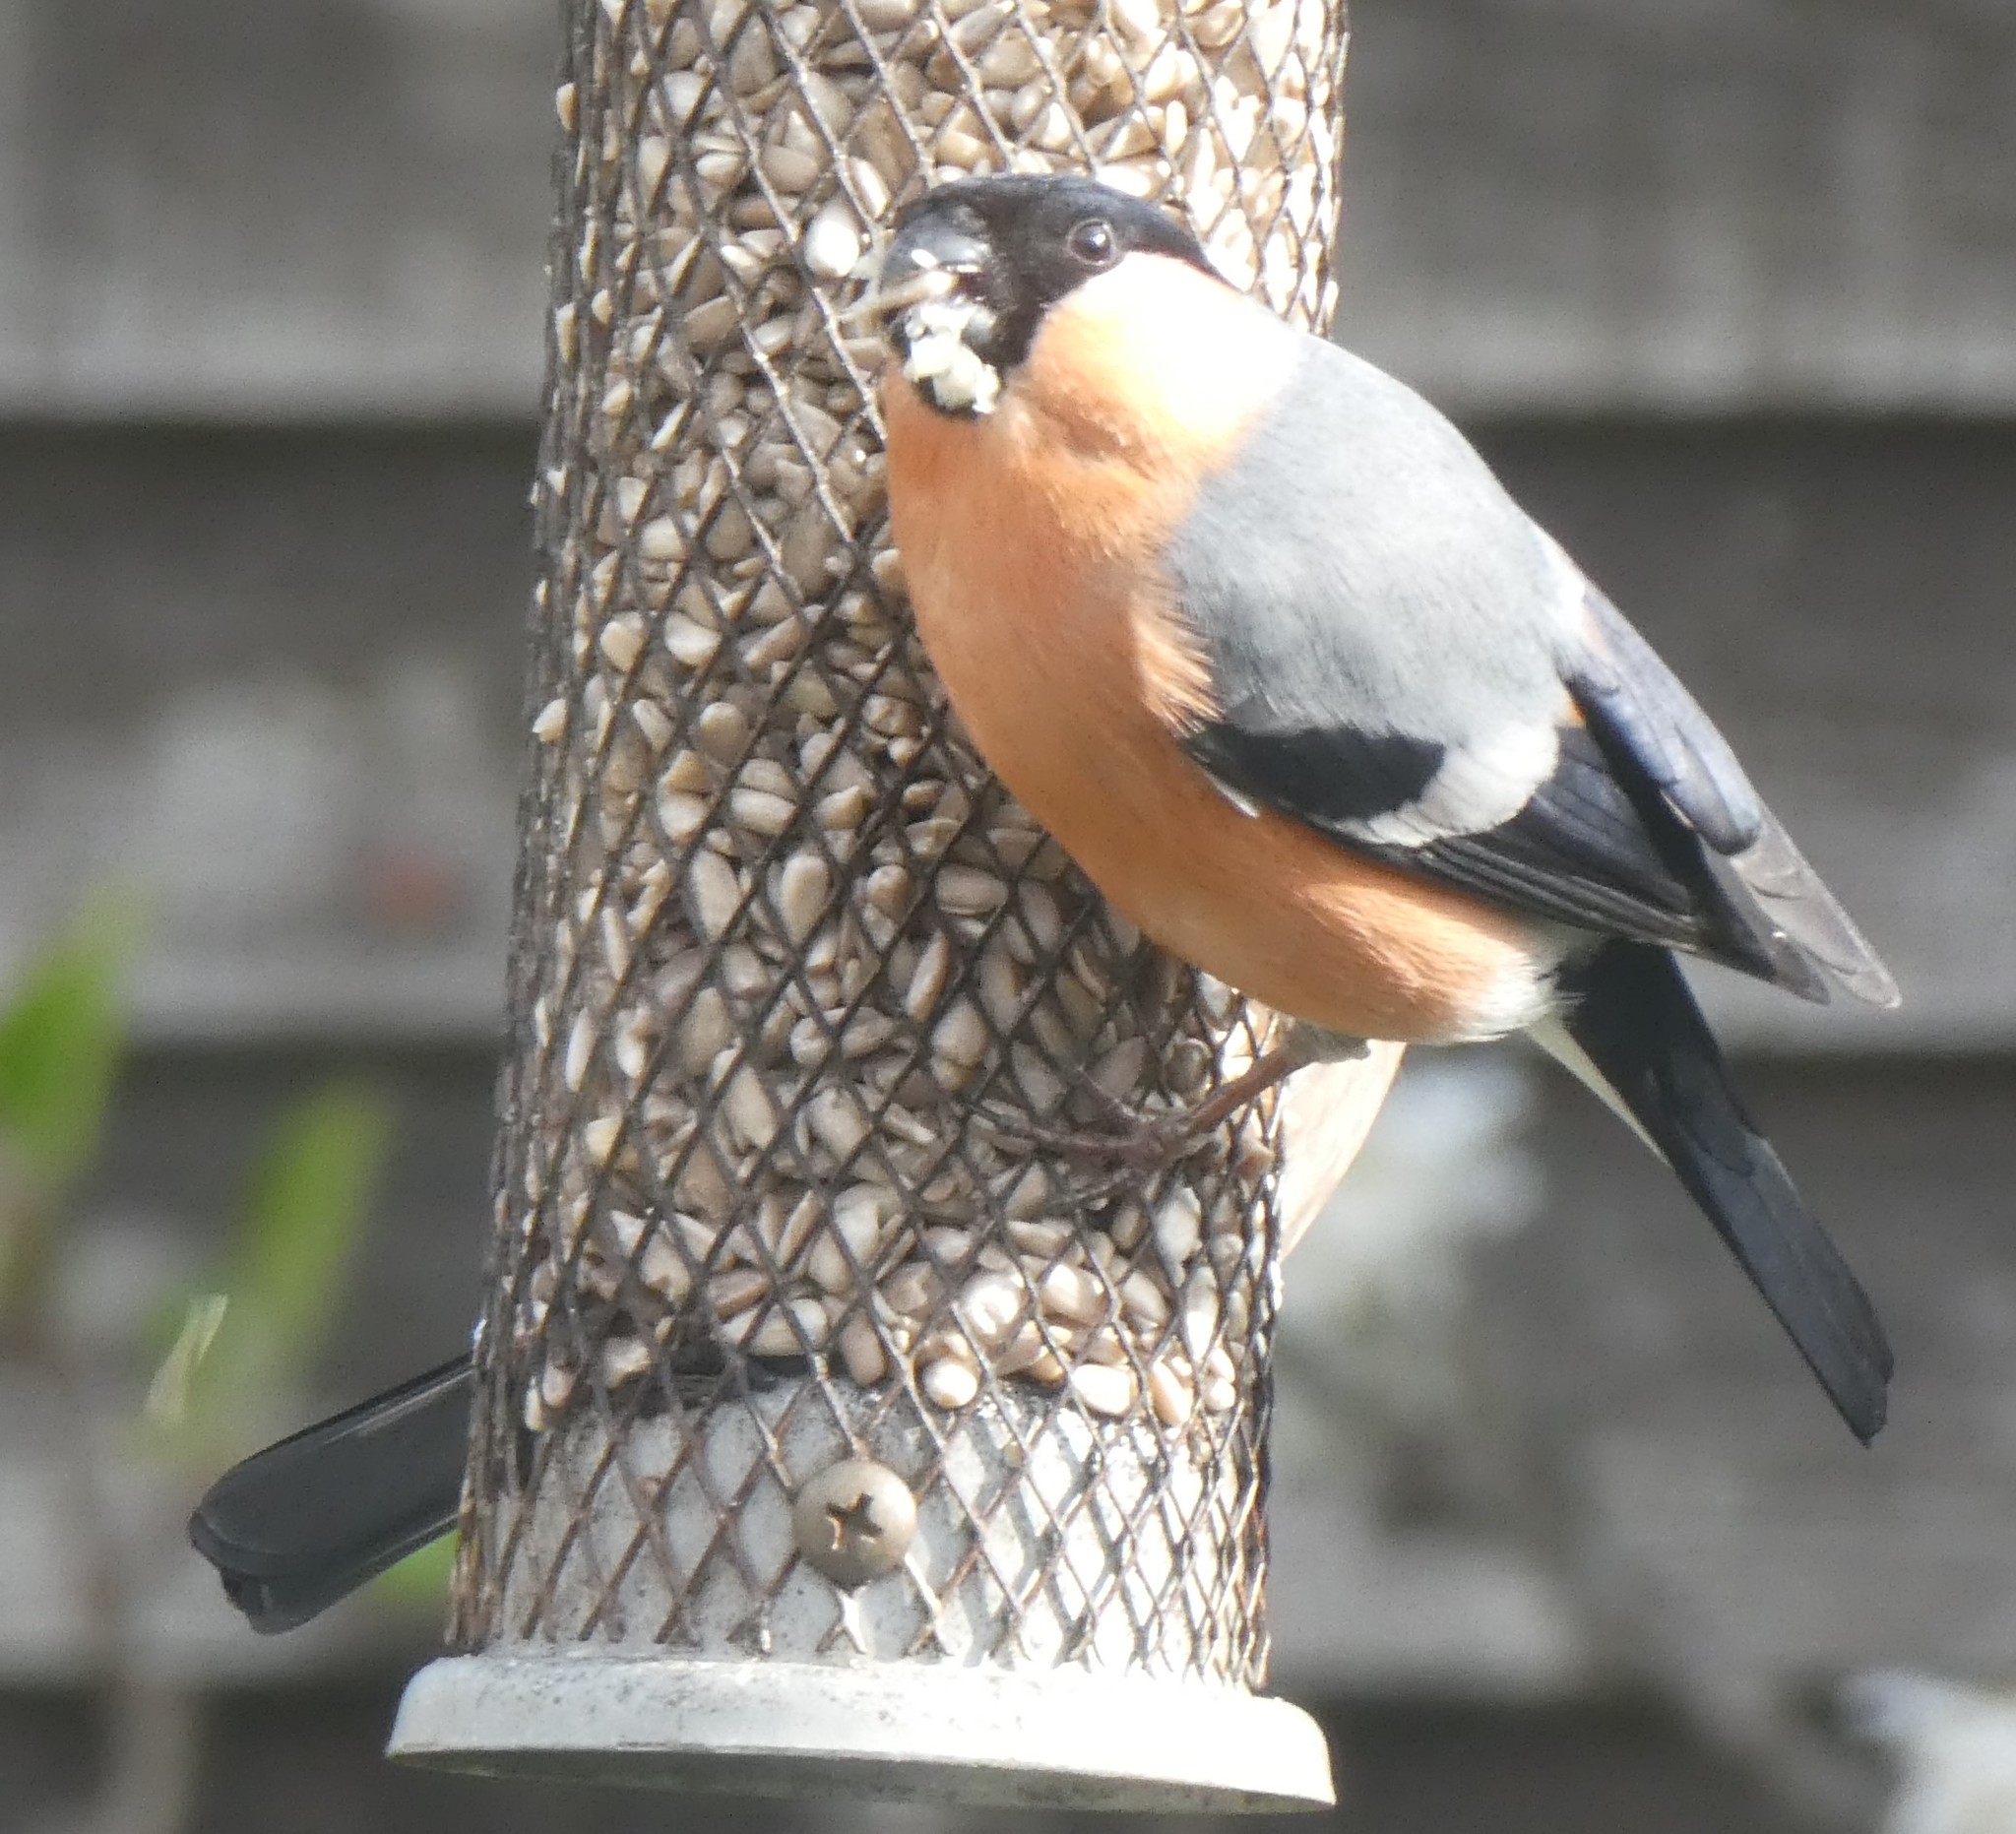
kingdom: Animalia
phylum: Chordata
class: Aves
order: Passeriformes
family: Fringillidae
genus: Pyrrhula
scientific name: Pyrrhula pyrrhula
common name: Eurasian bullfinch
